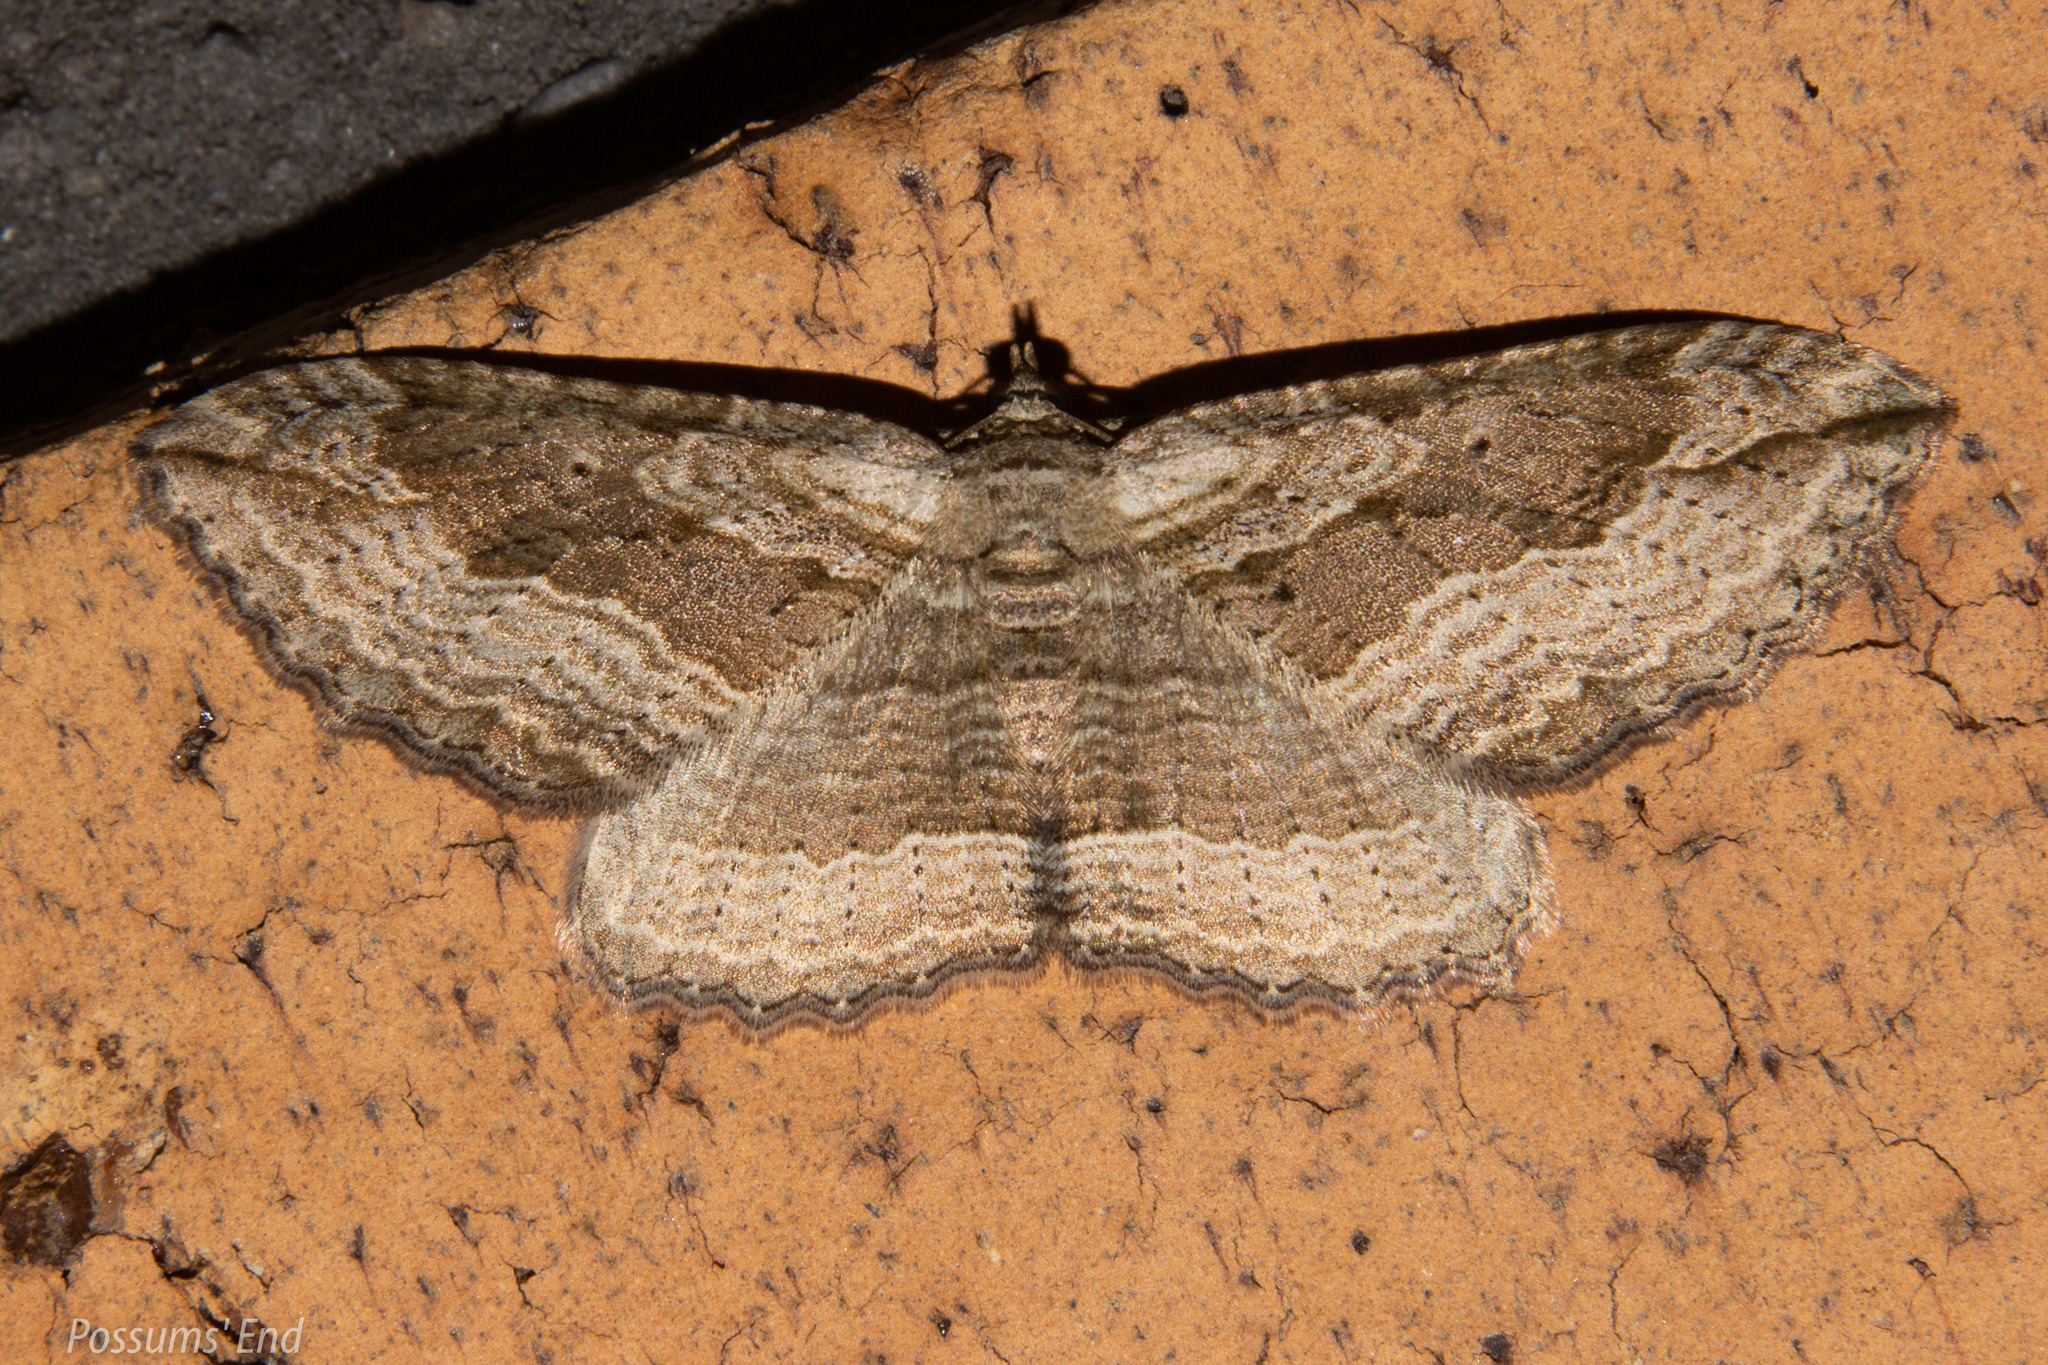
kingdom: Animalia
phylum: Arthropoda
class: Insecta
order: Lepidoptera
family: Geometridae
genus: Austrocidaria
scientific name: Austrocidaria gobiata
